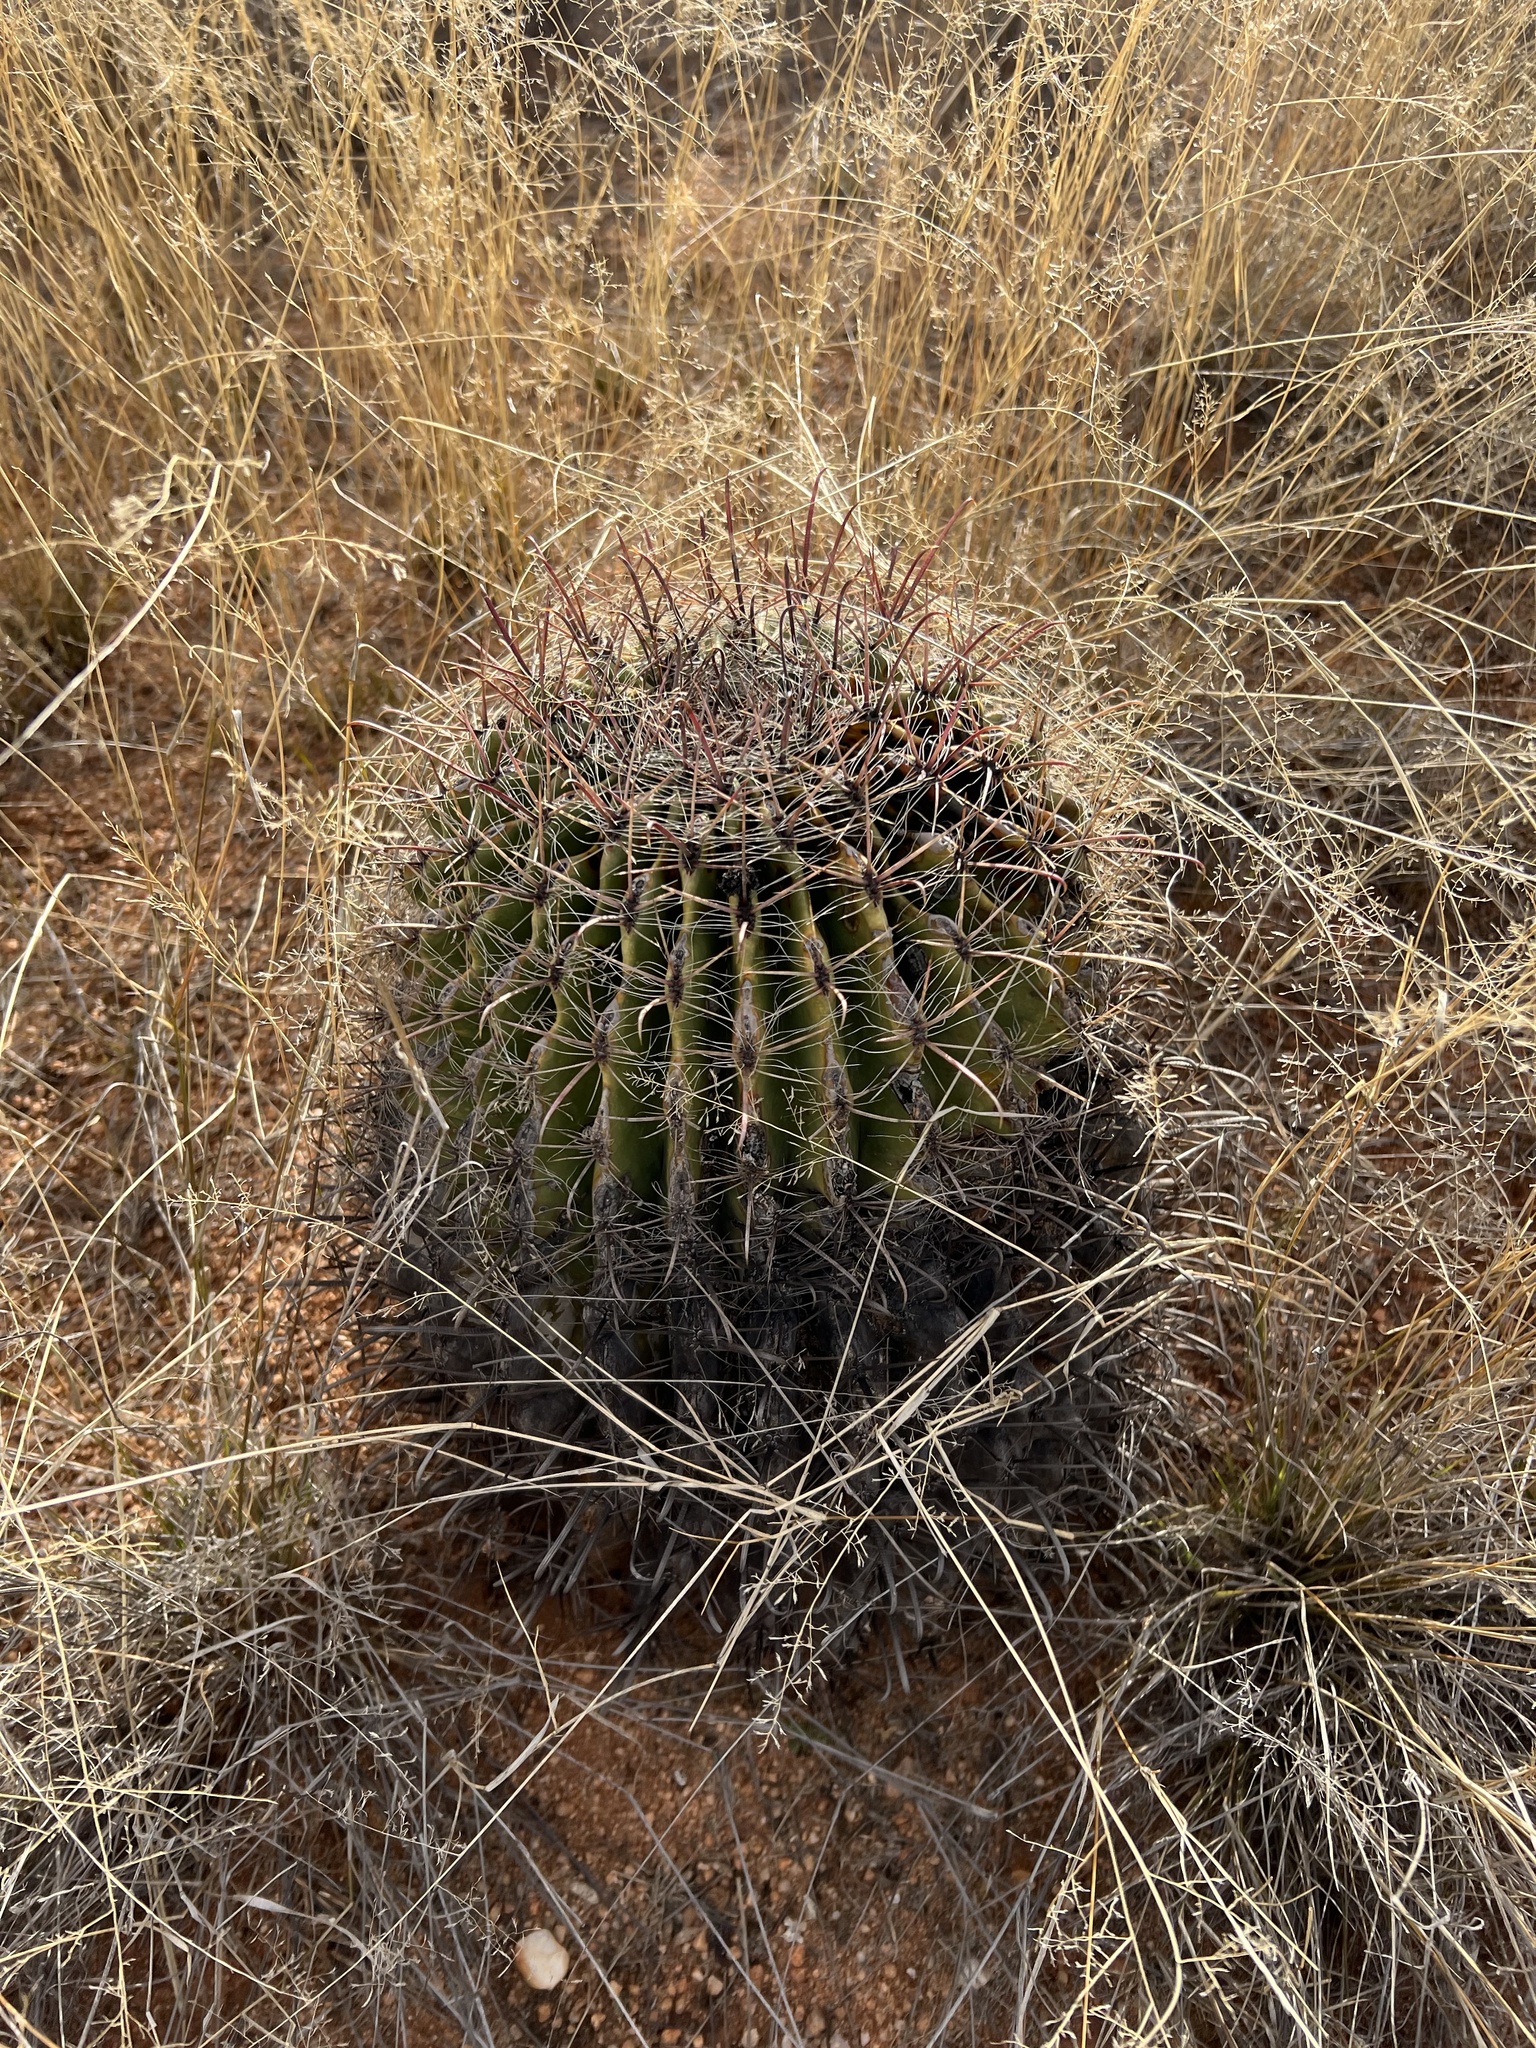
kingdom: Plantae
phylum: Tracheophyta
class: Magnoliopsida
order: Caryophyllales
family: Cactaceae
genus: Ferocactus
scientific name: Ferocactus wislizeni
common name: Candy barrel cactus
